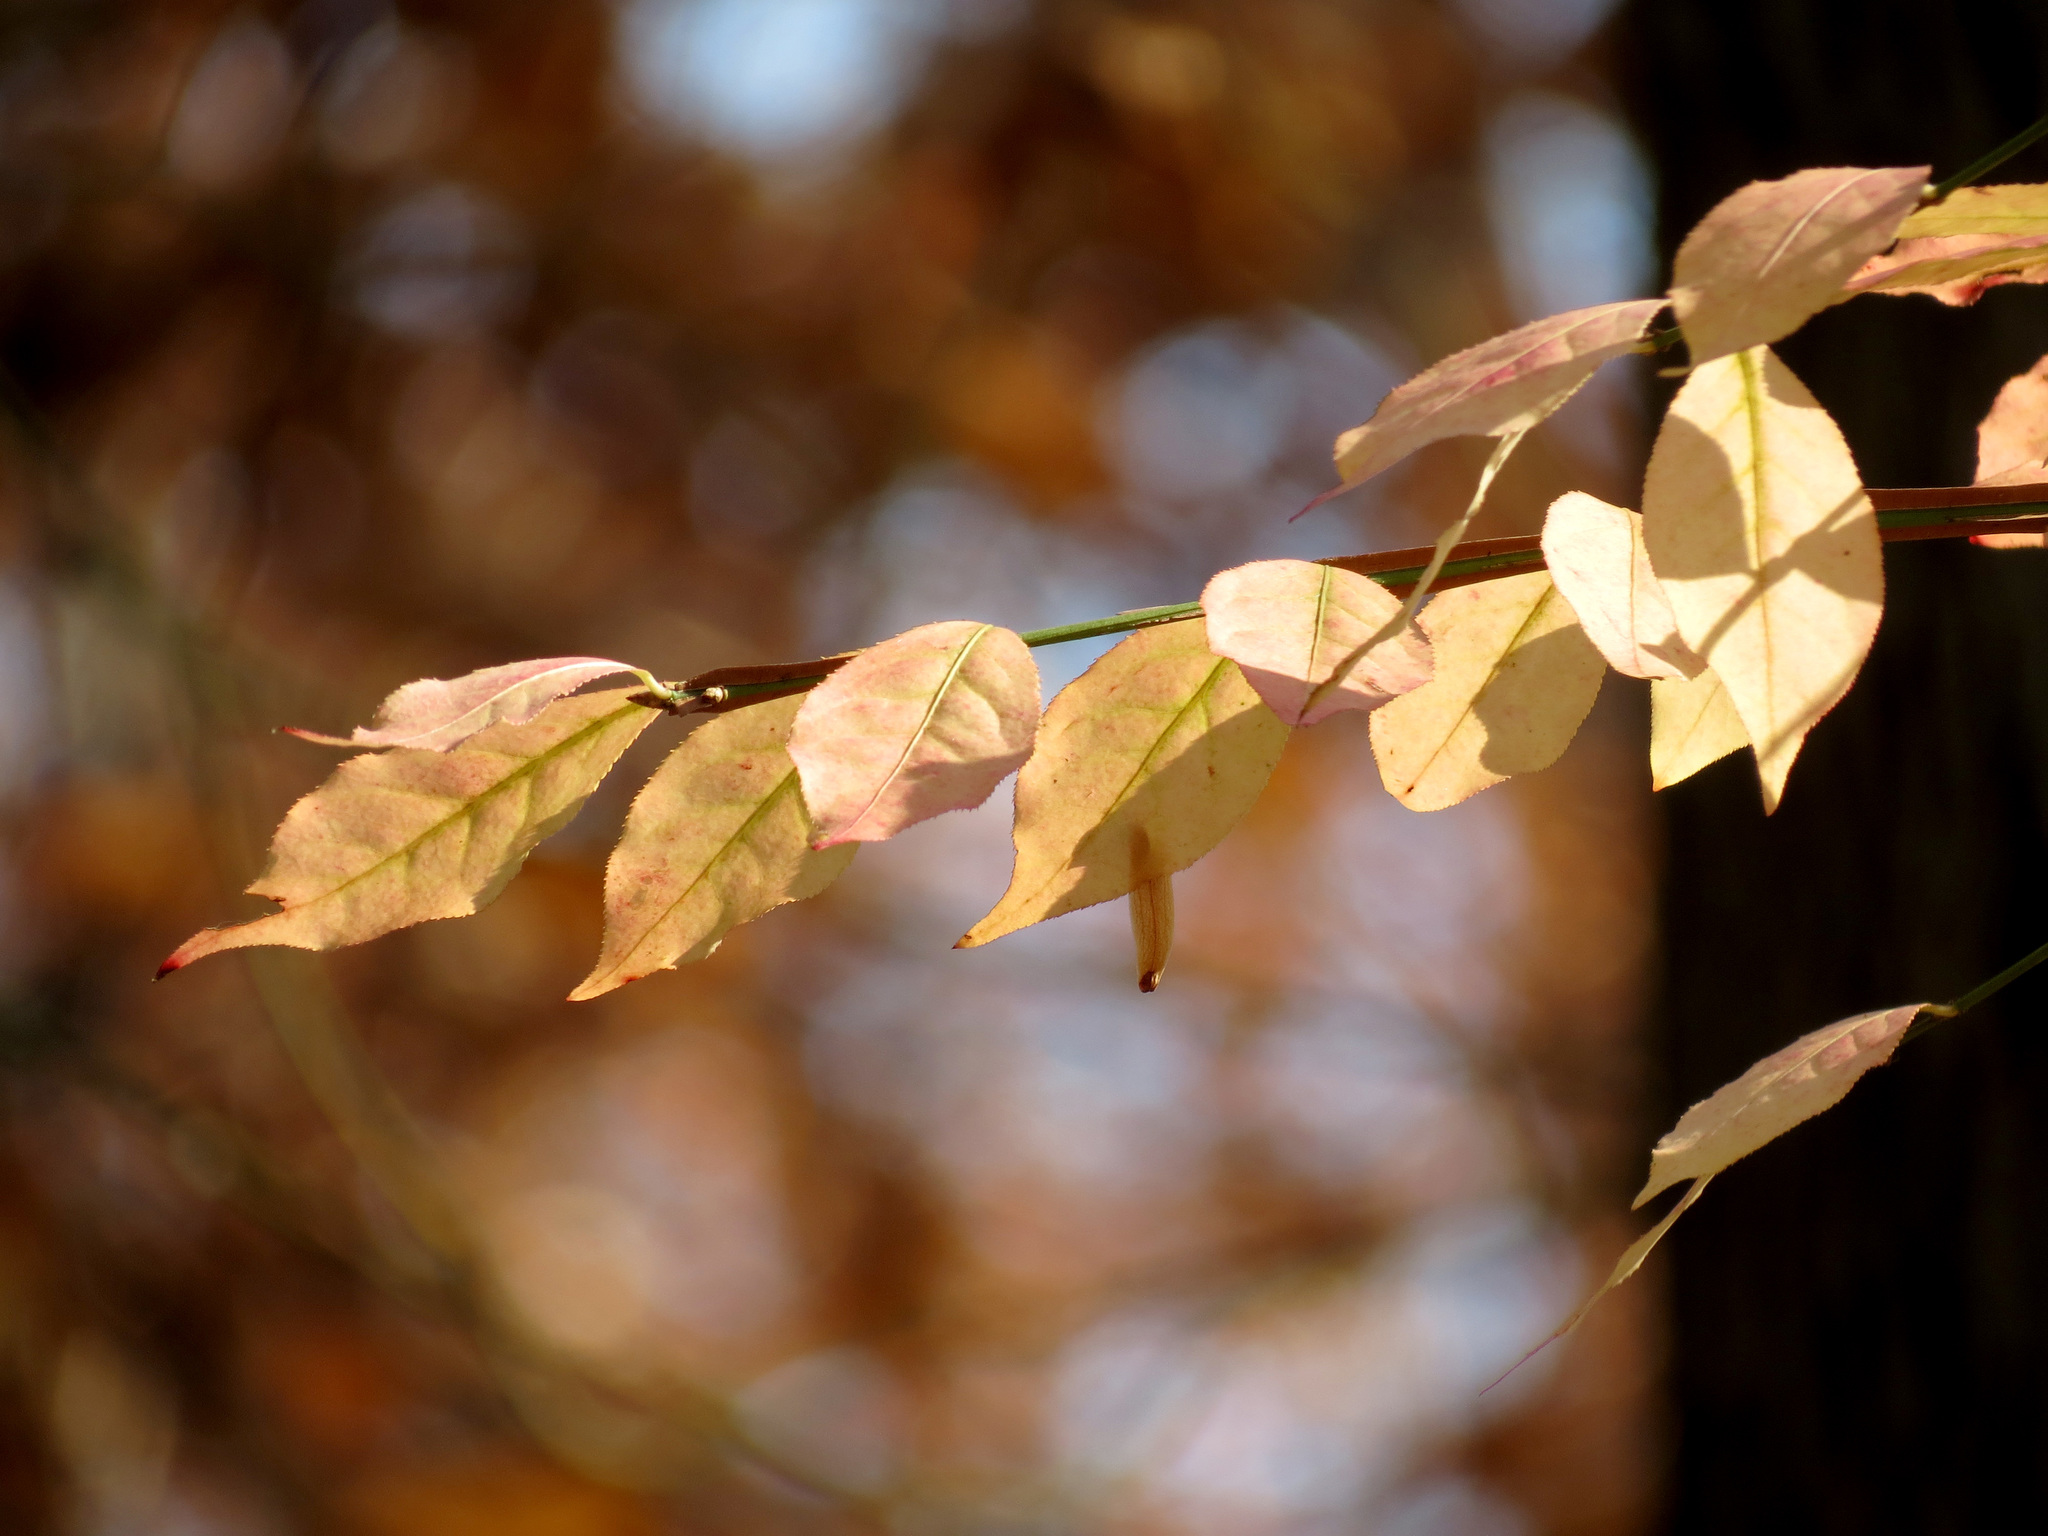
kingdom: Plantae
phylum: Tracheophyta
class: Magnoliopsida
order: Celastrales
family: Celastraceae
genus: Euonymus
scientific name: Euonymus alatus
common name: Winged euonymus
